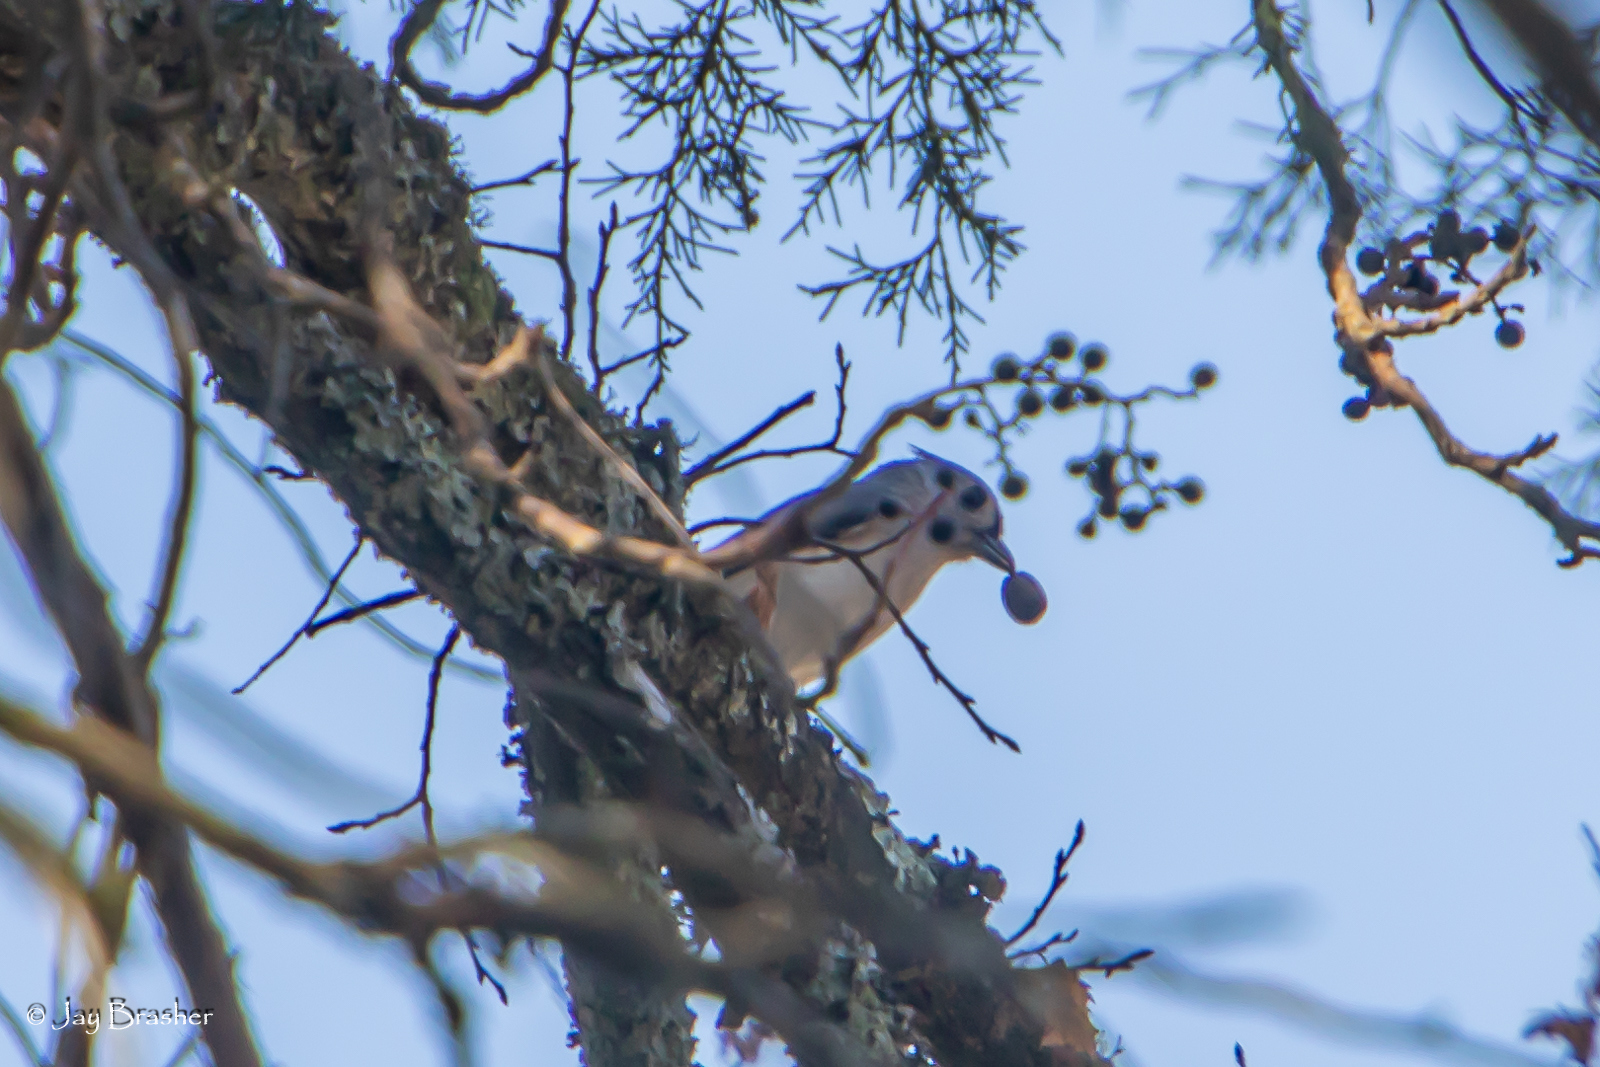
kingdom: Animalia
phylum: Chordata
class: Aves
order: Passeriformes
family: Paridae
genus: Baeolophus
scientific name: Baeolophus bicolor
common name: Tufted titmouse
